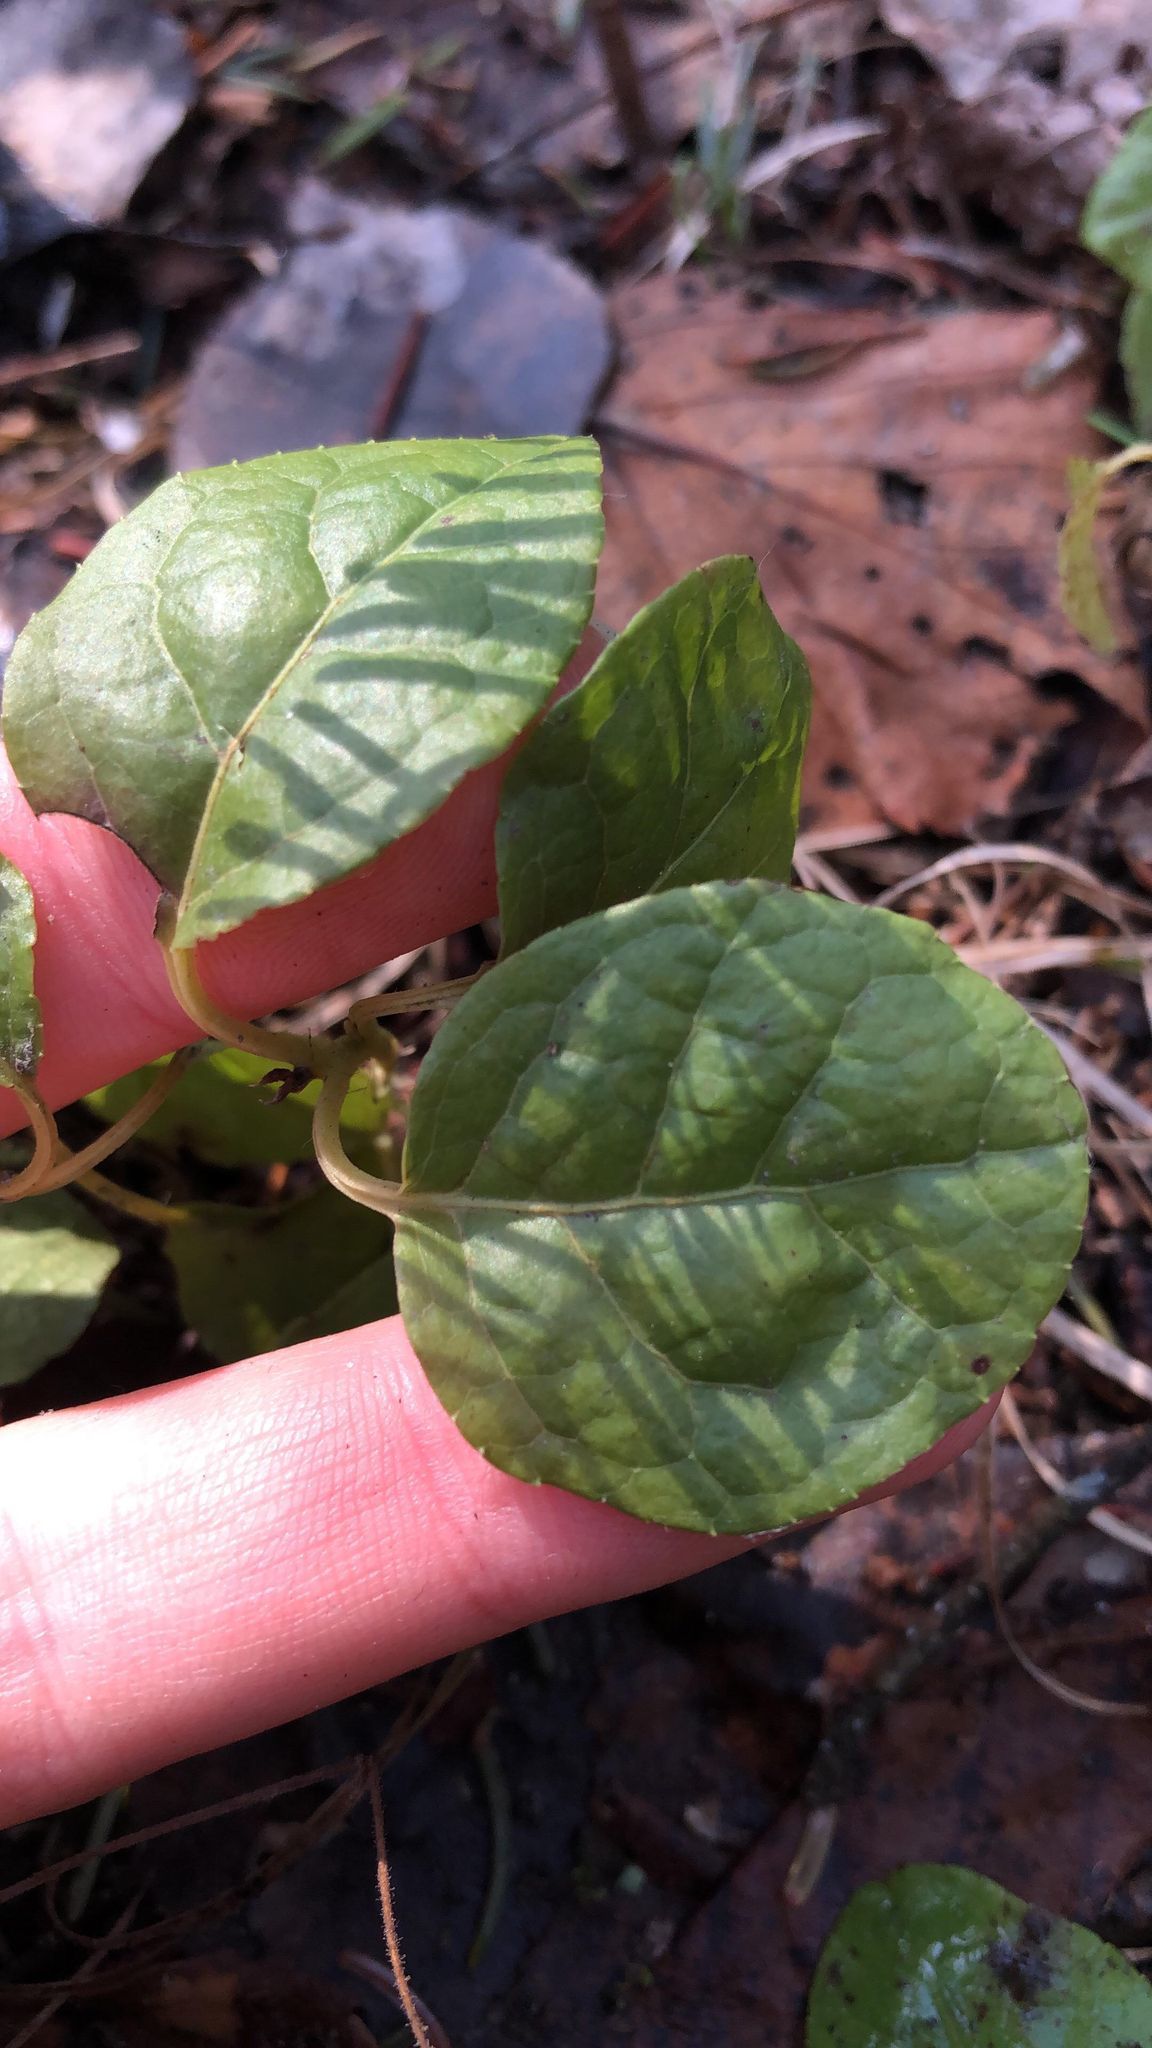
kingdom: Plantae
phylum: Tracheophyta
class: Magnoliopsida
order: Ericales
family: Ericaceae
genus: Orthilia
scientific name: Orthilia secunda
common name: One-sided orthilia
